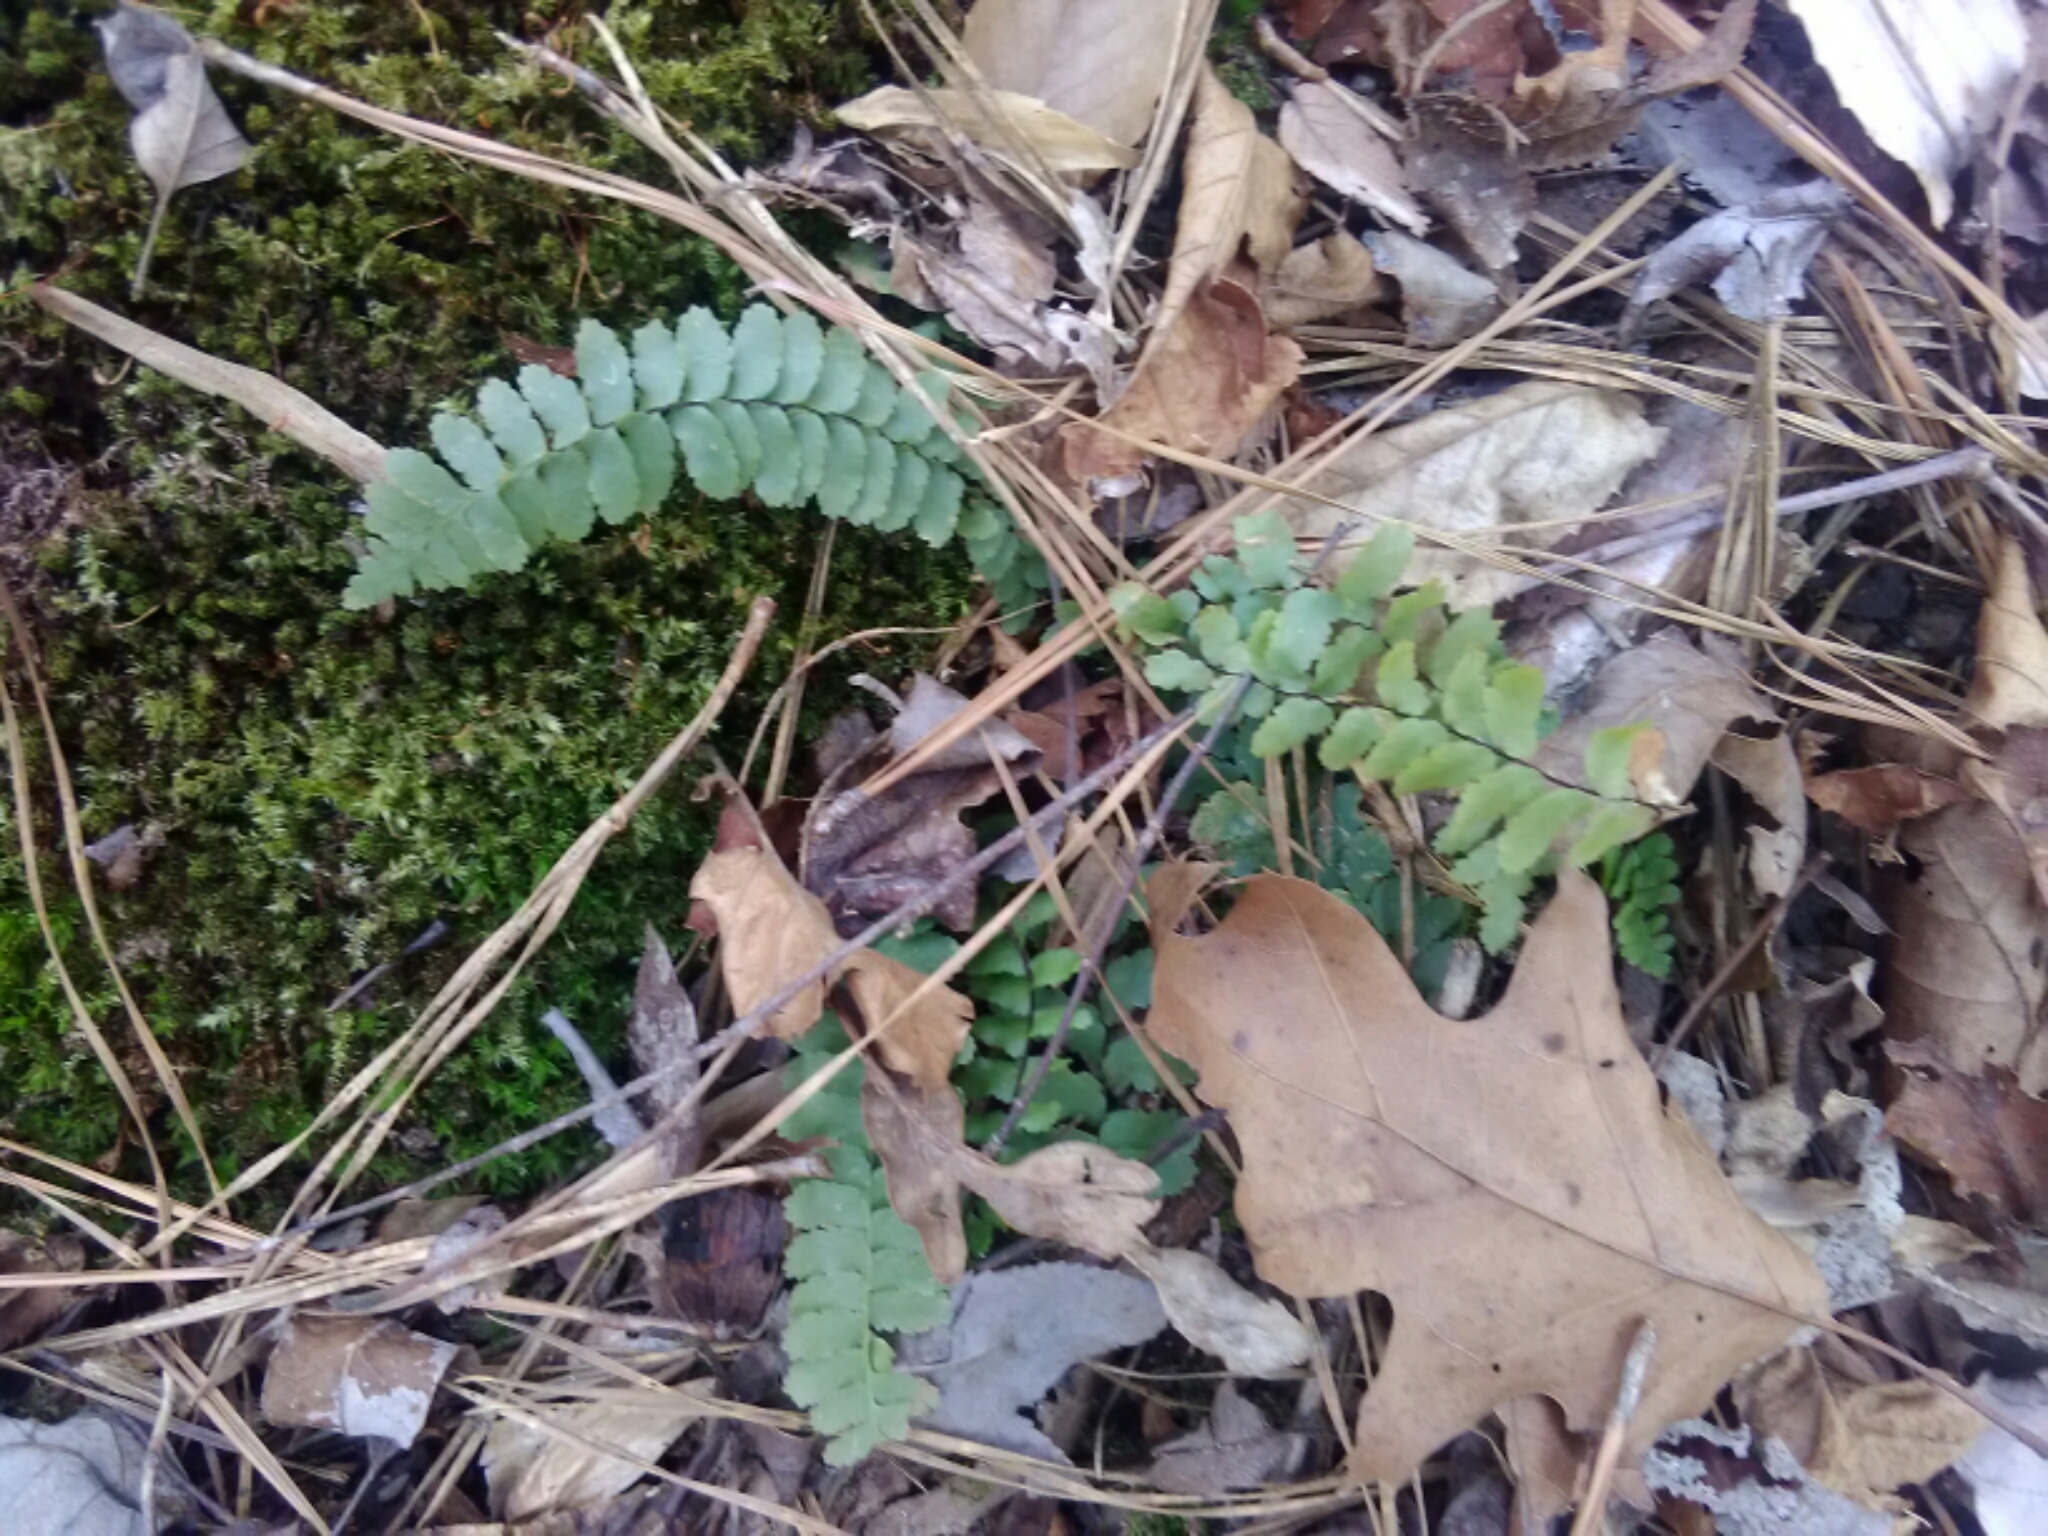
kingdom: Plantae
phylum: Tracheophyta
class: Polypodiopsida
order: Polypodiales
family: Aspleniaceae
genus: Asplenium
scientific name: Asplenium platyneuron
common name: Ebony spleenwort
